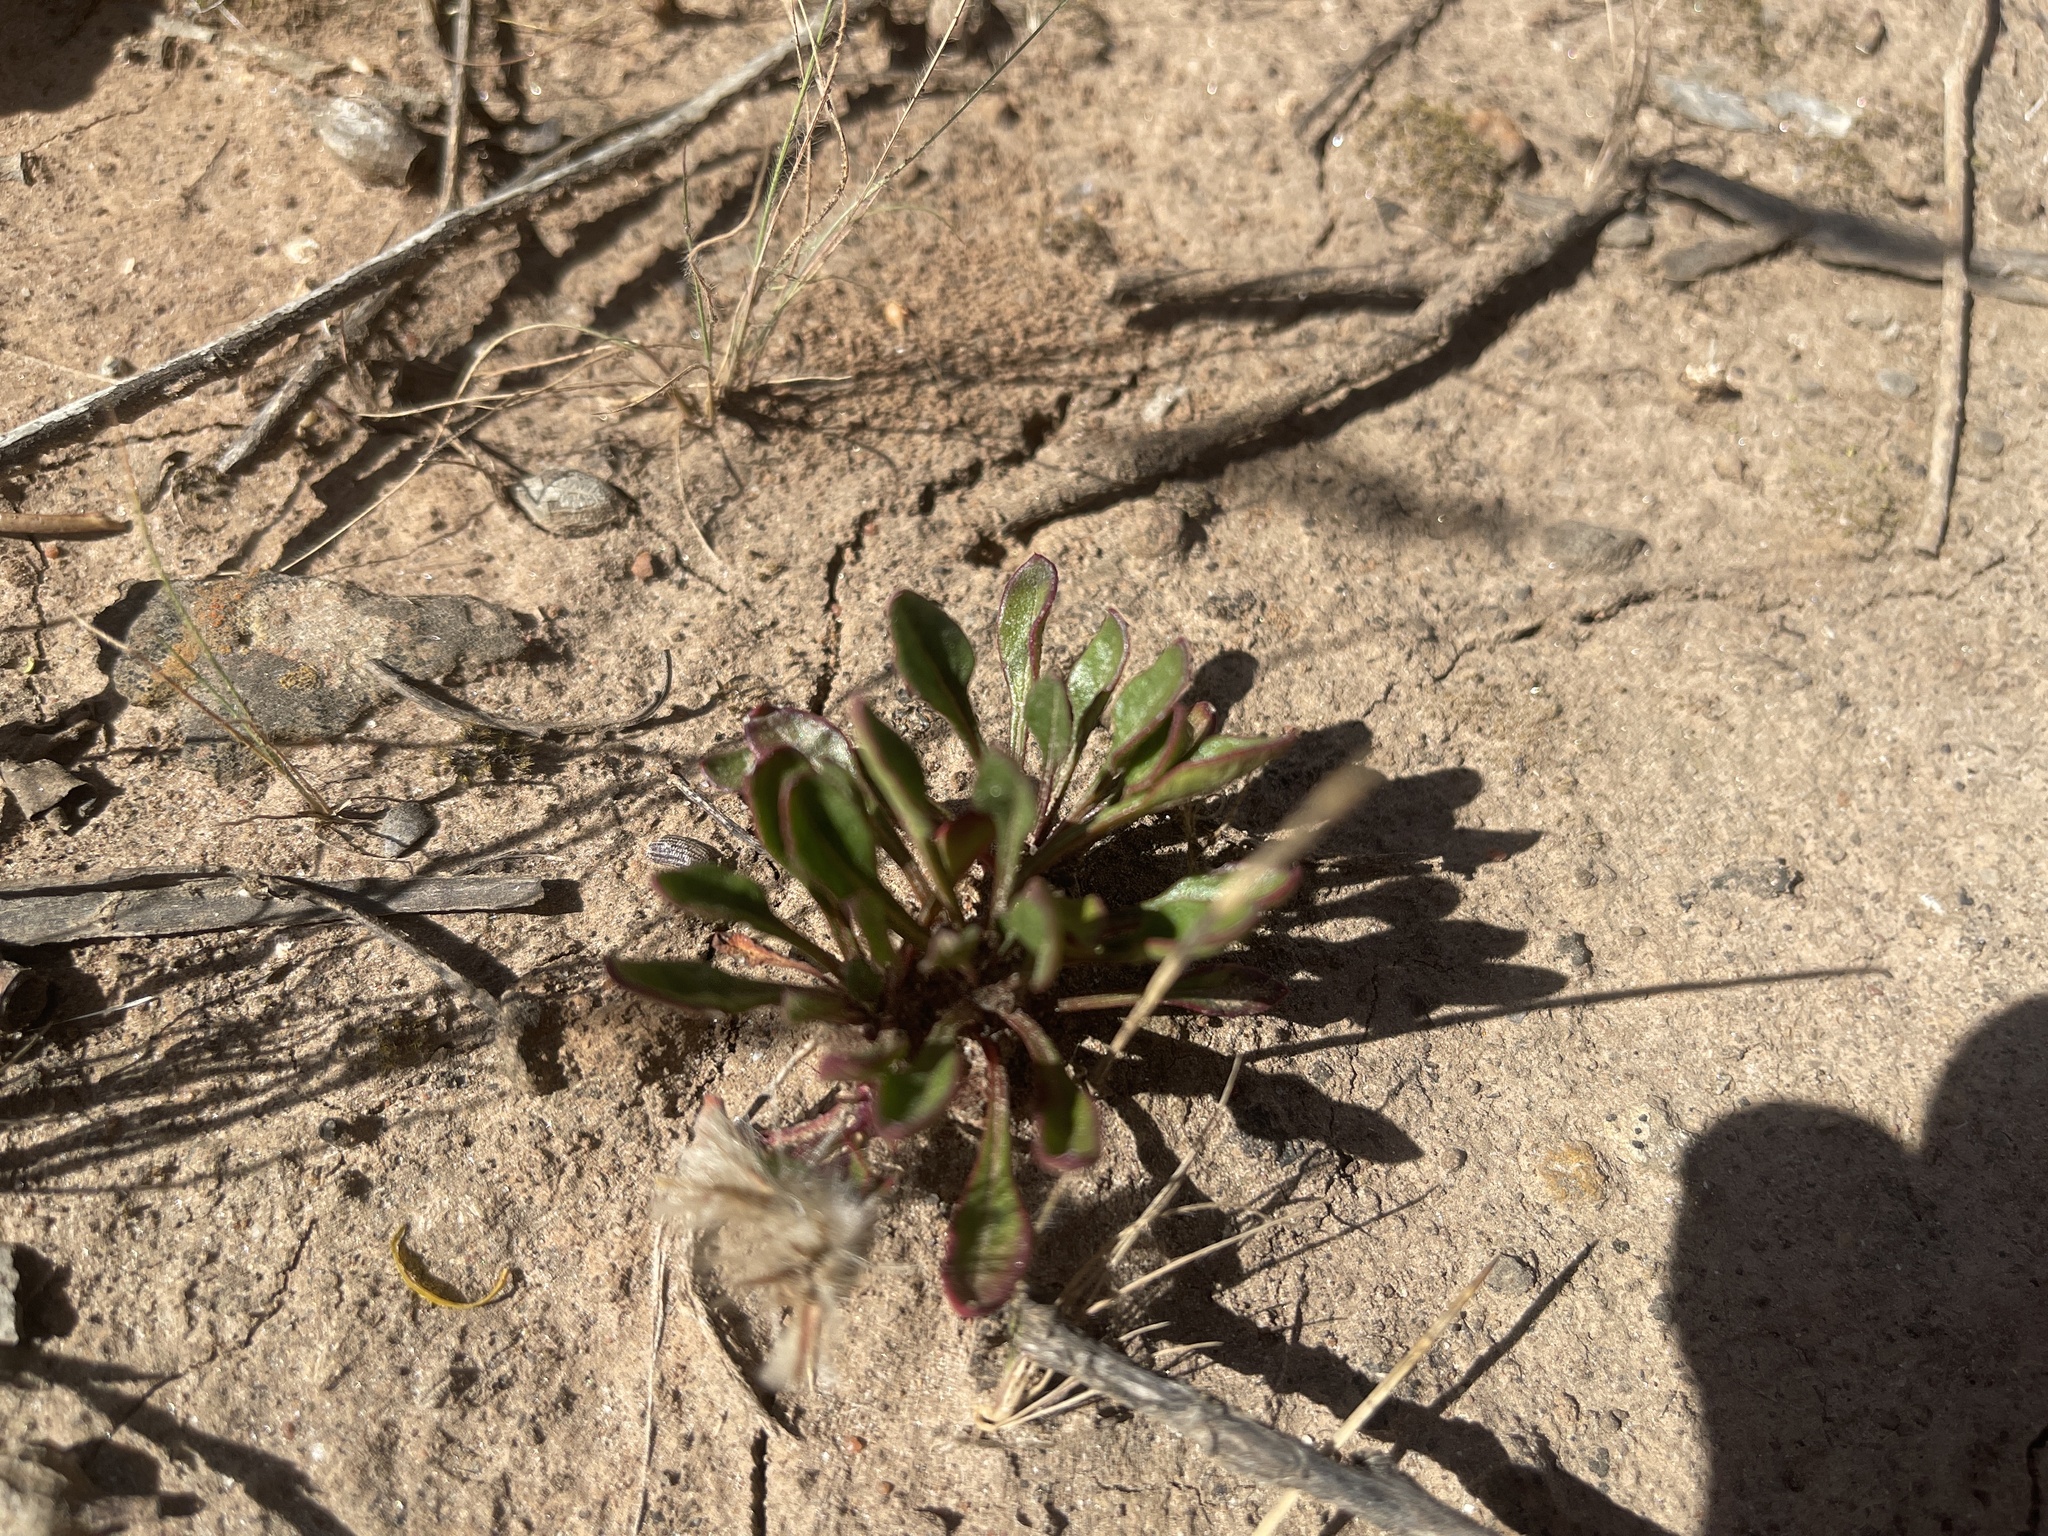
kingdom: Plantae
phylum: Tracheophyta
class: Magnoliopsida
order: Caryophyllales
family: Amaranthaceae
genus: Ptilotus
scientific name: Ptilotus spathulatus
